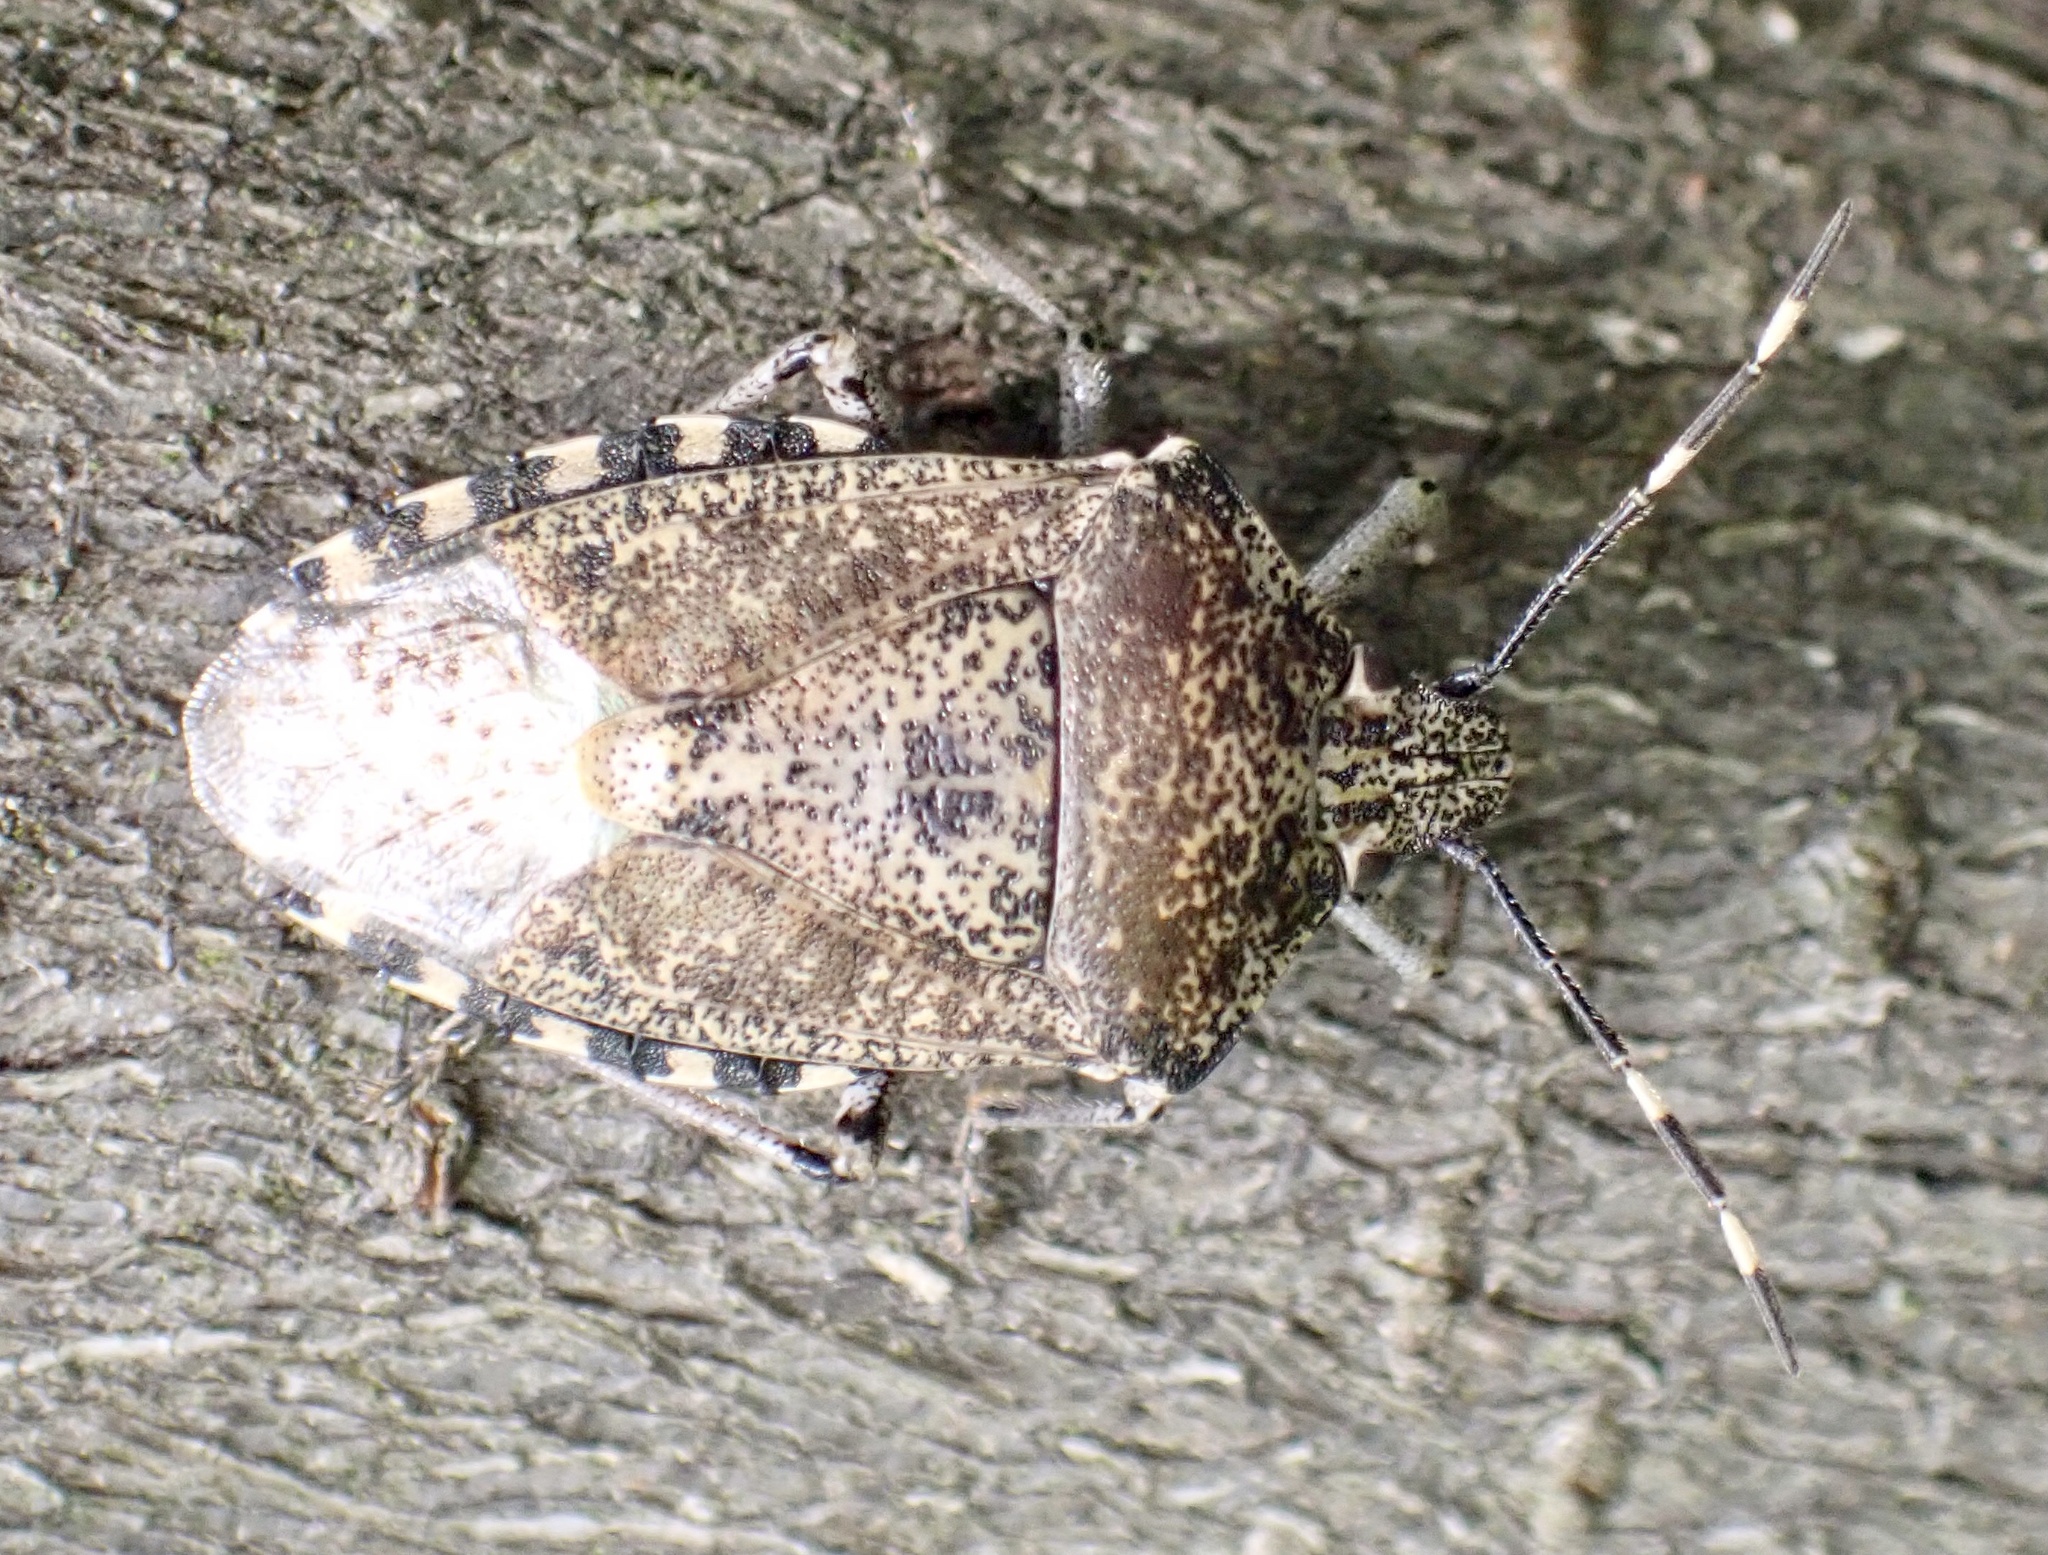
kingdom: Animalia
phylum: Arthropoda
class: Insecta
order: Hemiptera
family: Pentatomidae
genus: Rhaphigaster
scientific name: Rhaphigaster nebulosa
